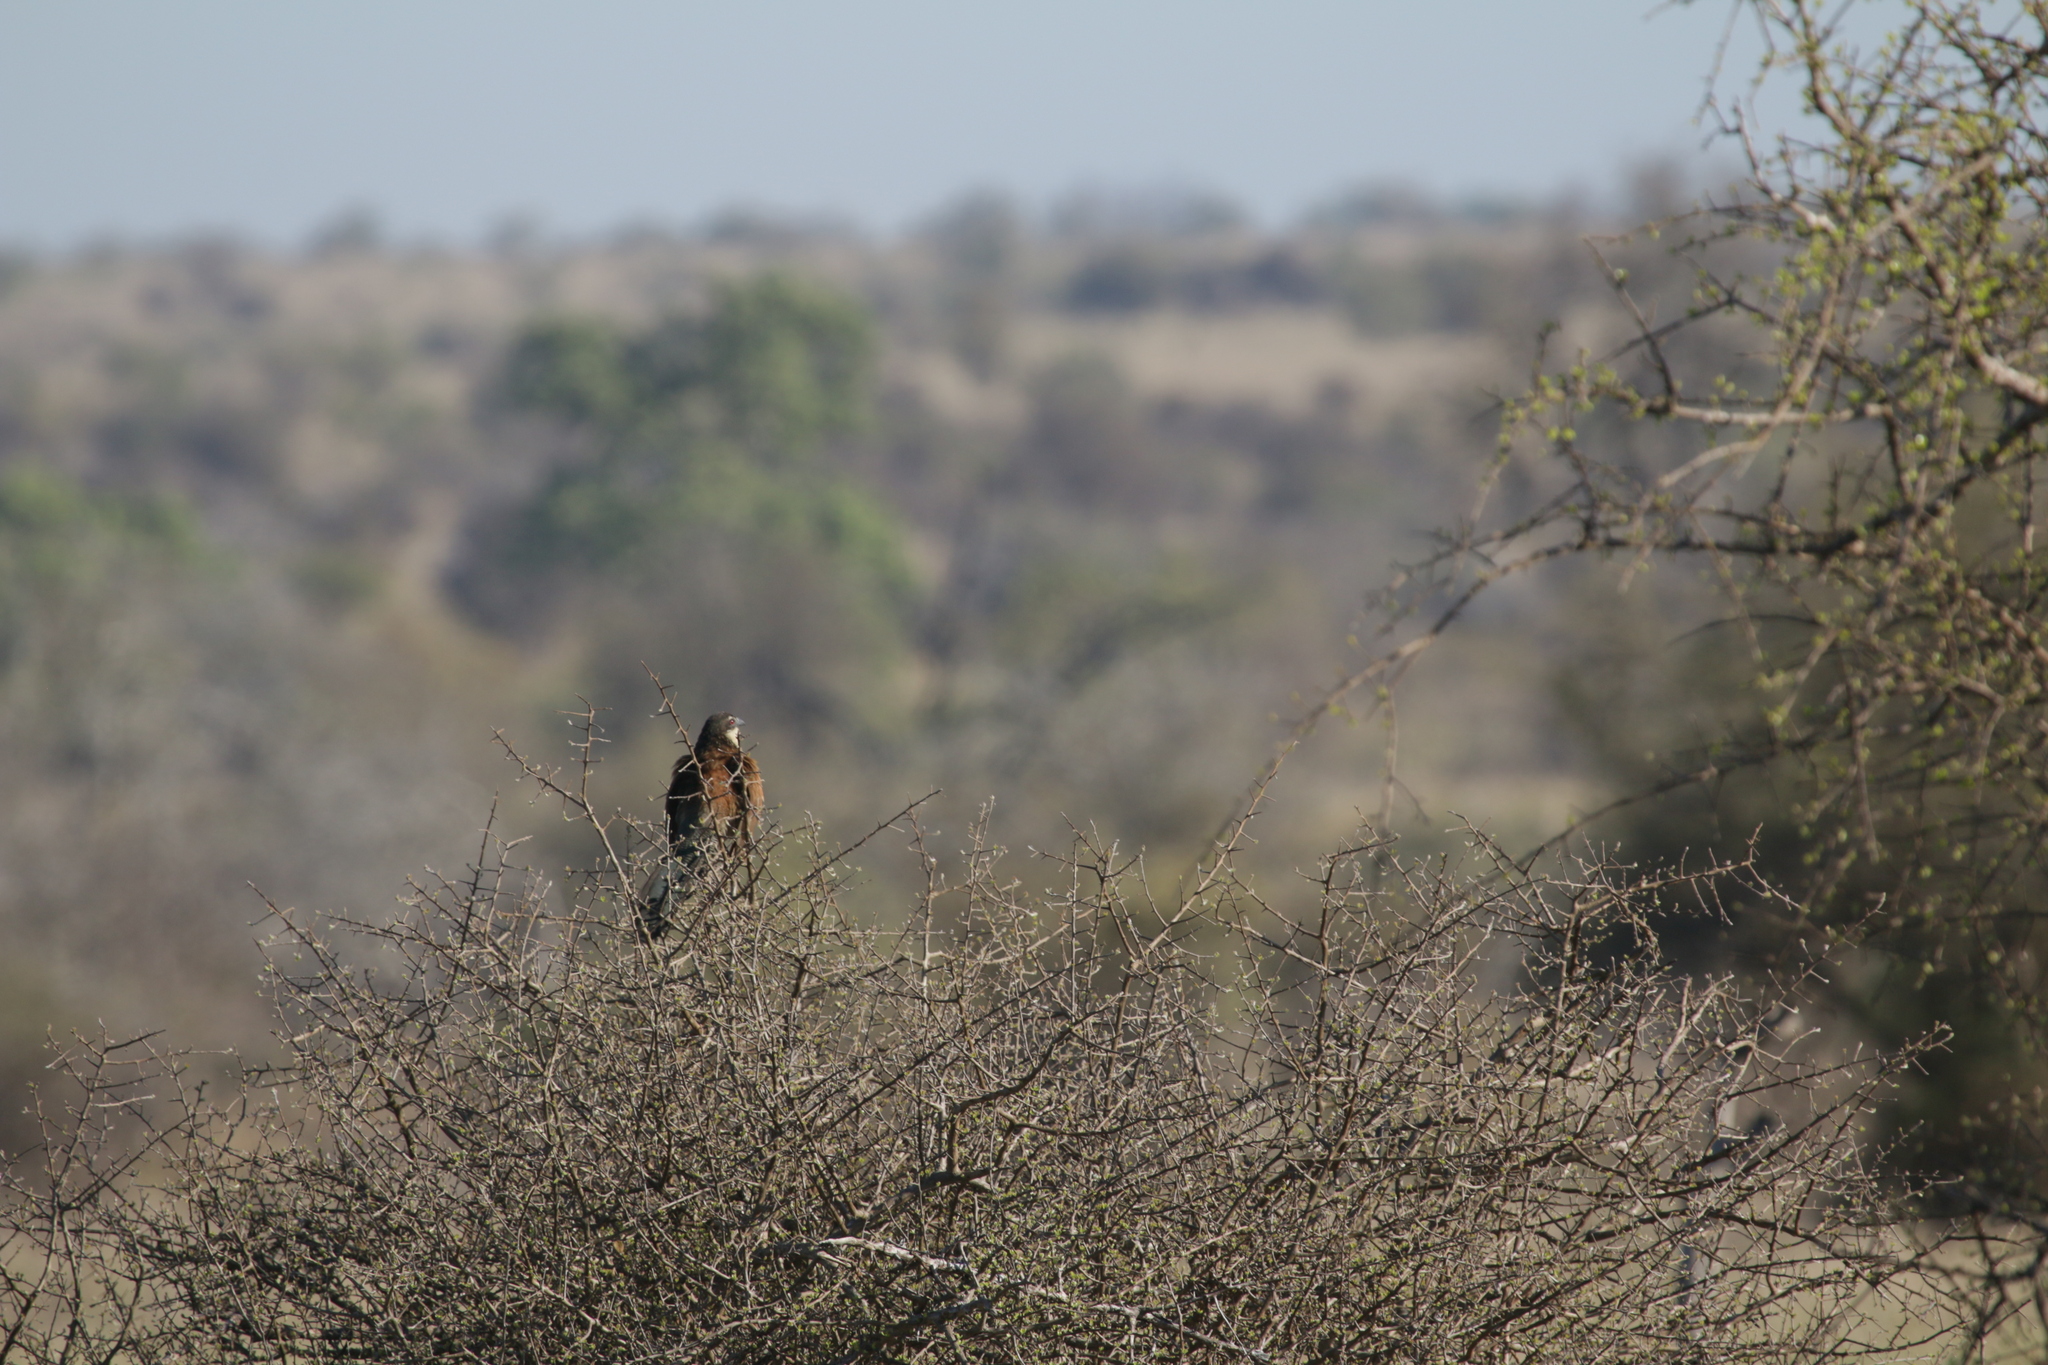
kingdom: Animalia
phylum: Chordata
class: Aves
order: Cuculiformes
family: Cuculidae
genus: Centropus
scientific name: Centropus superciliosus
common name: White-browed coucal
